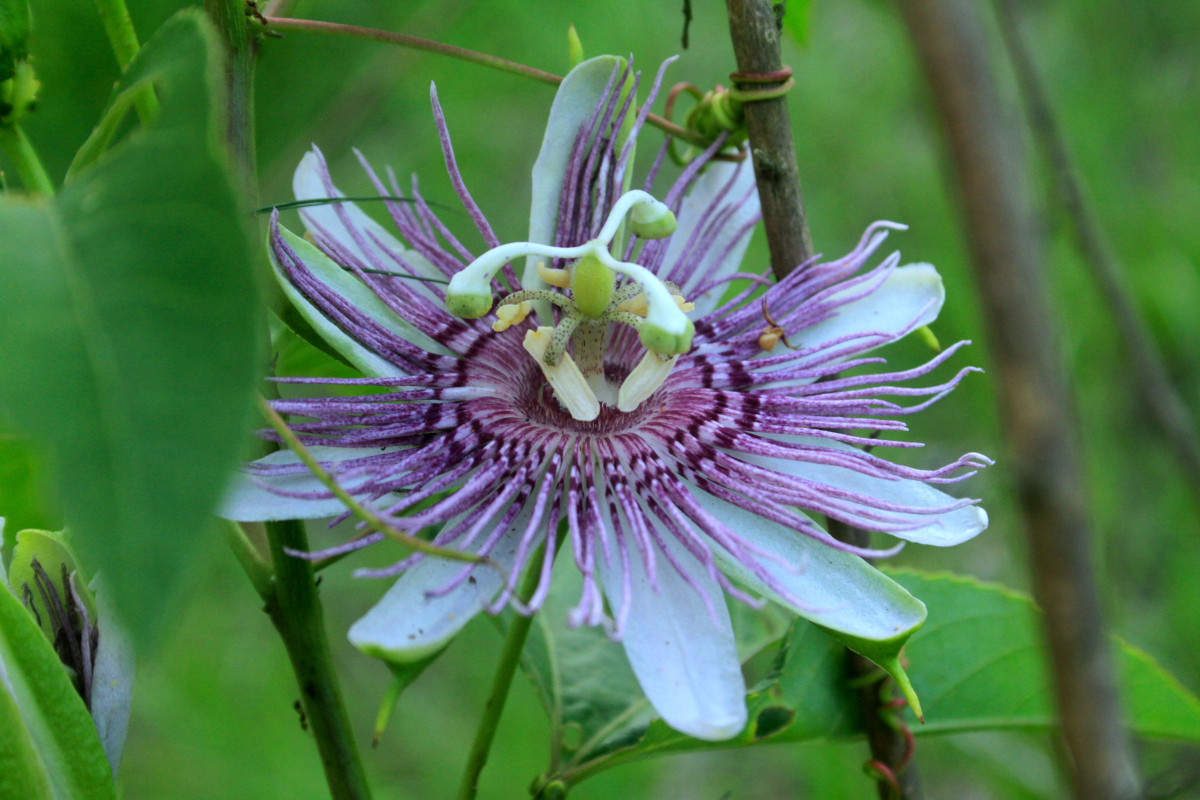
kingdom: Plantae
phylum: Tracheophyta
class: Magnoliopsida
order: Malpighiales
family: Passifloraceae
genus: Passiflora
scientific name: Passiflora incarnata
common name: Apricot-vine
